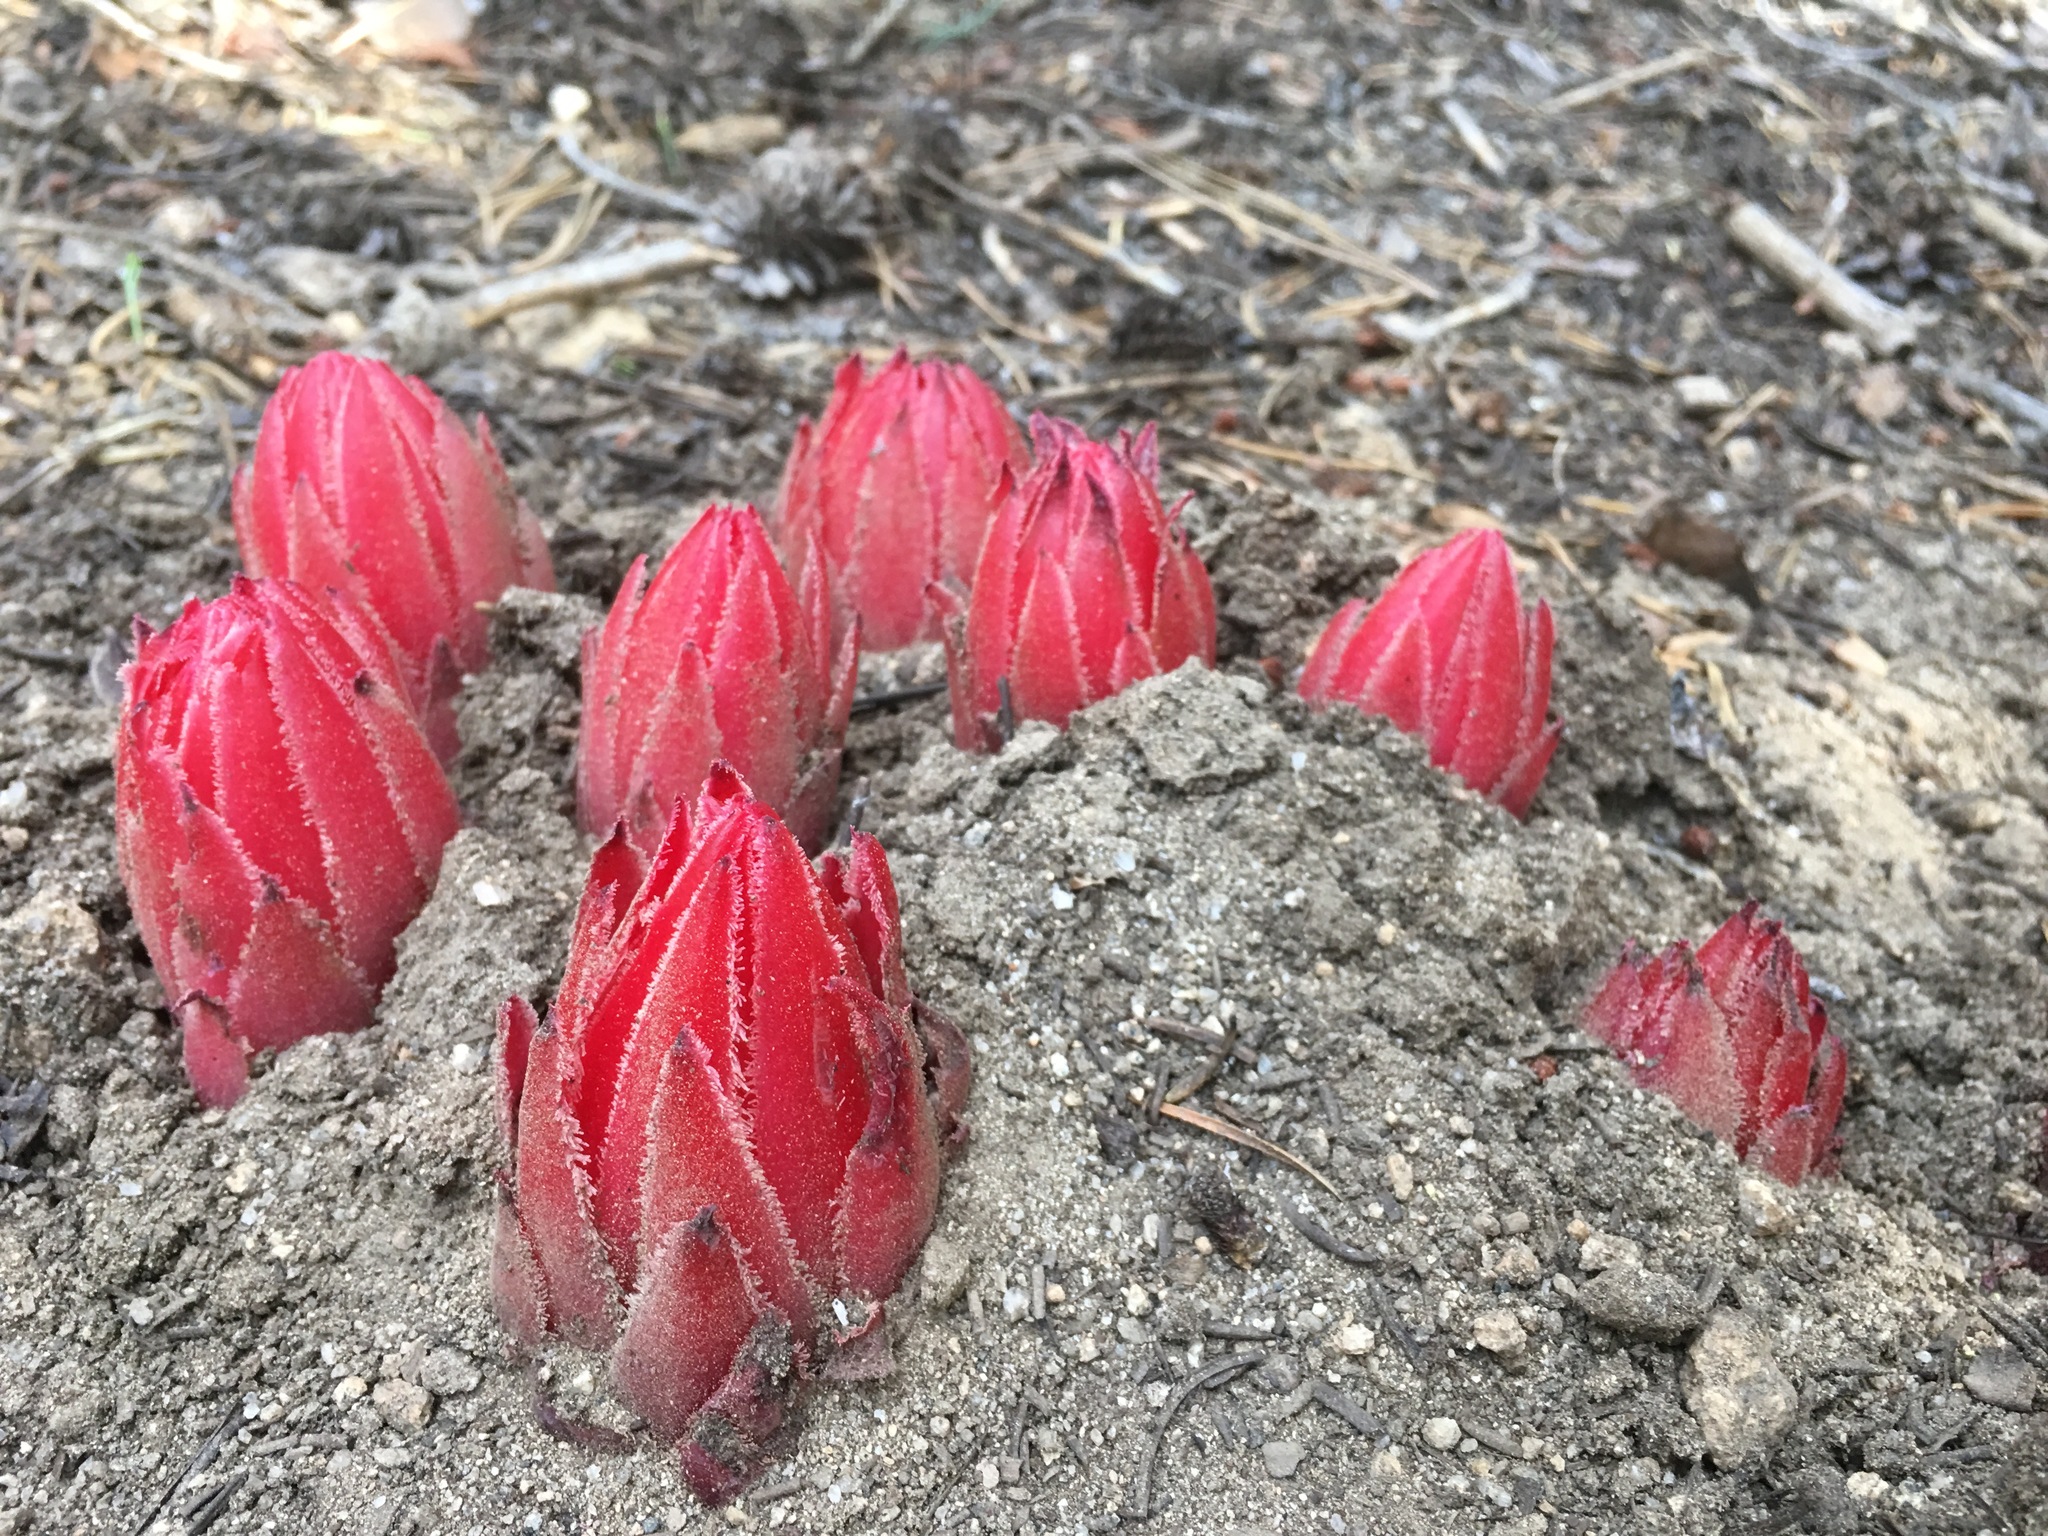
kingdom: Plantae
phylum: Tracheophyta
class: Magnoliopsida
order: Ericales
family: Ericaceae
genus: Sarcodes
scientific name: Sarcodes sanguinea
